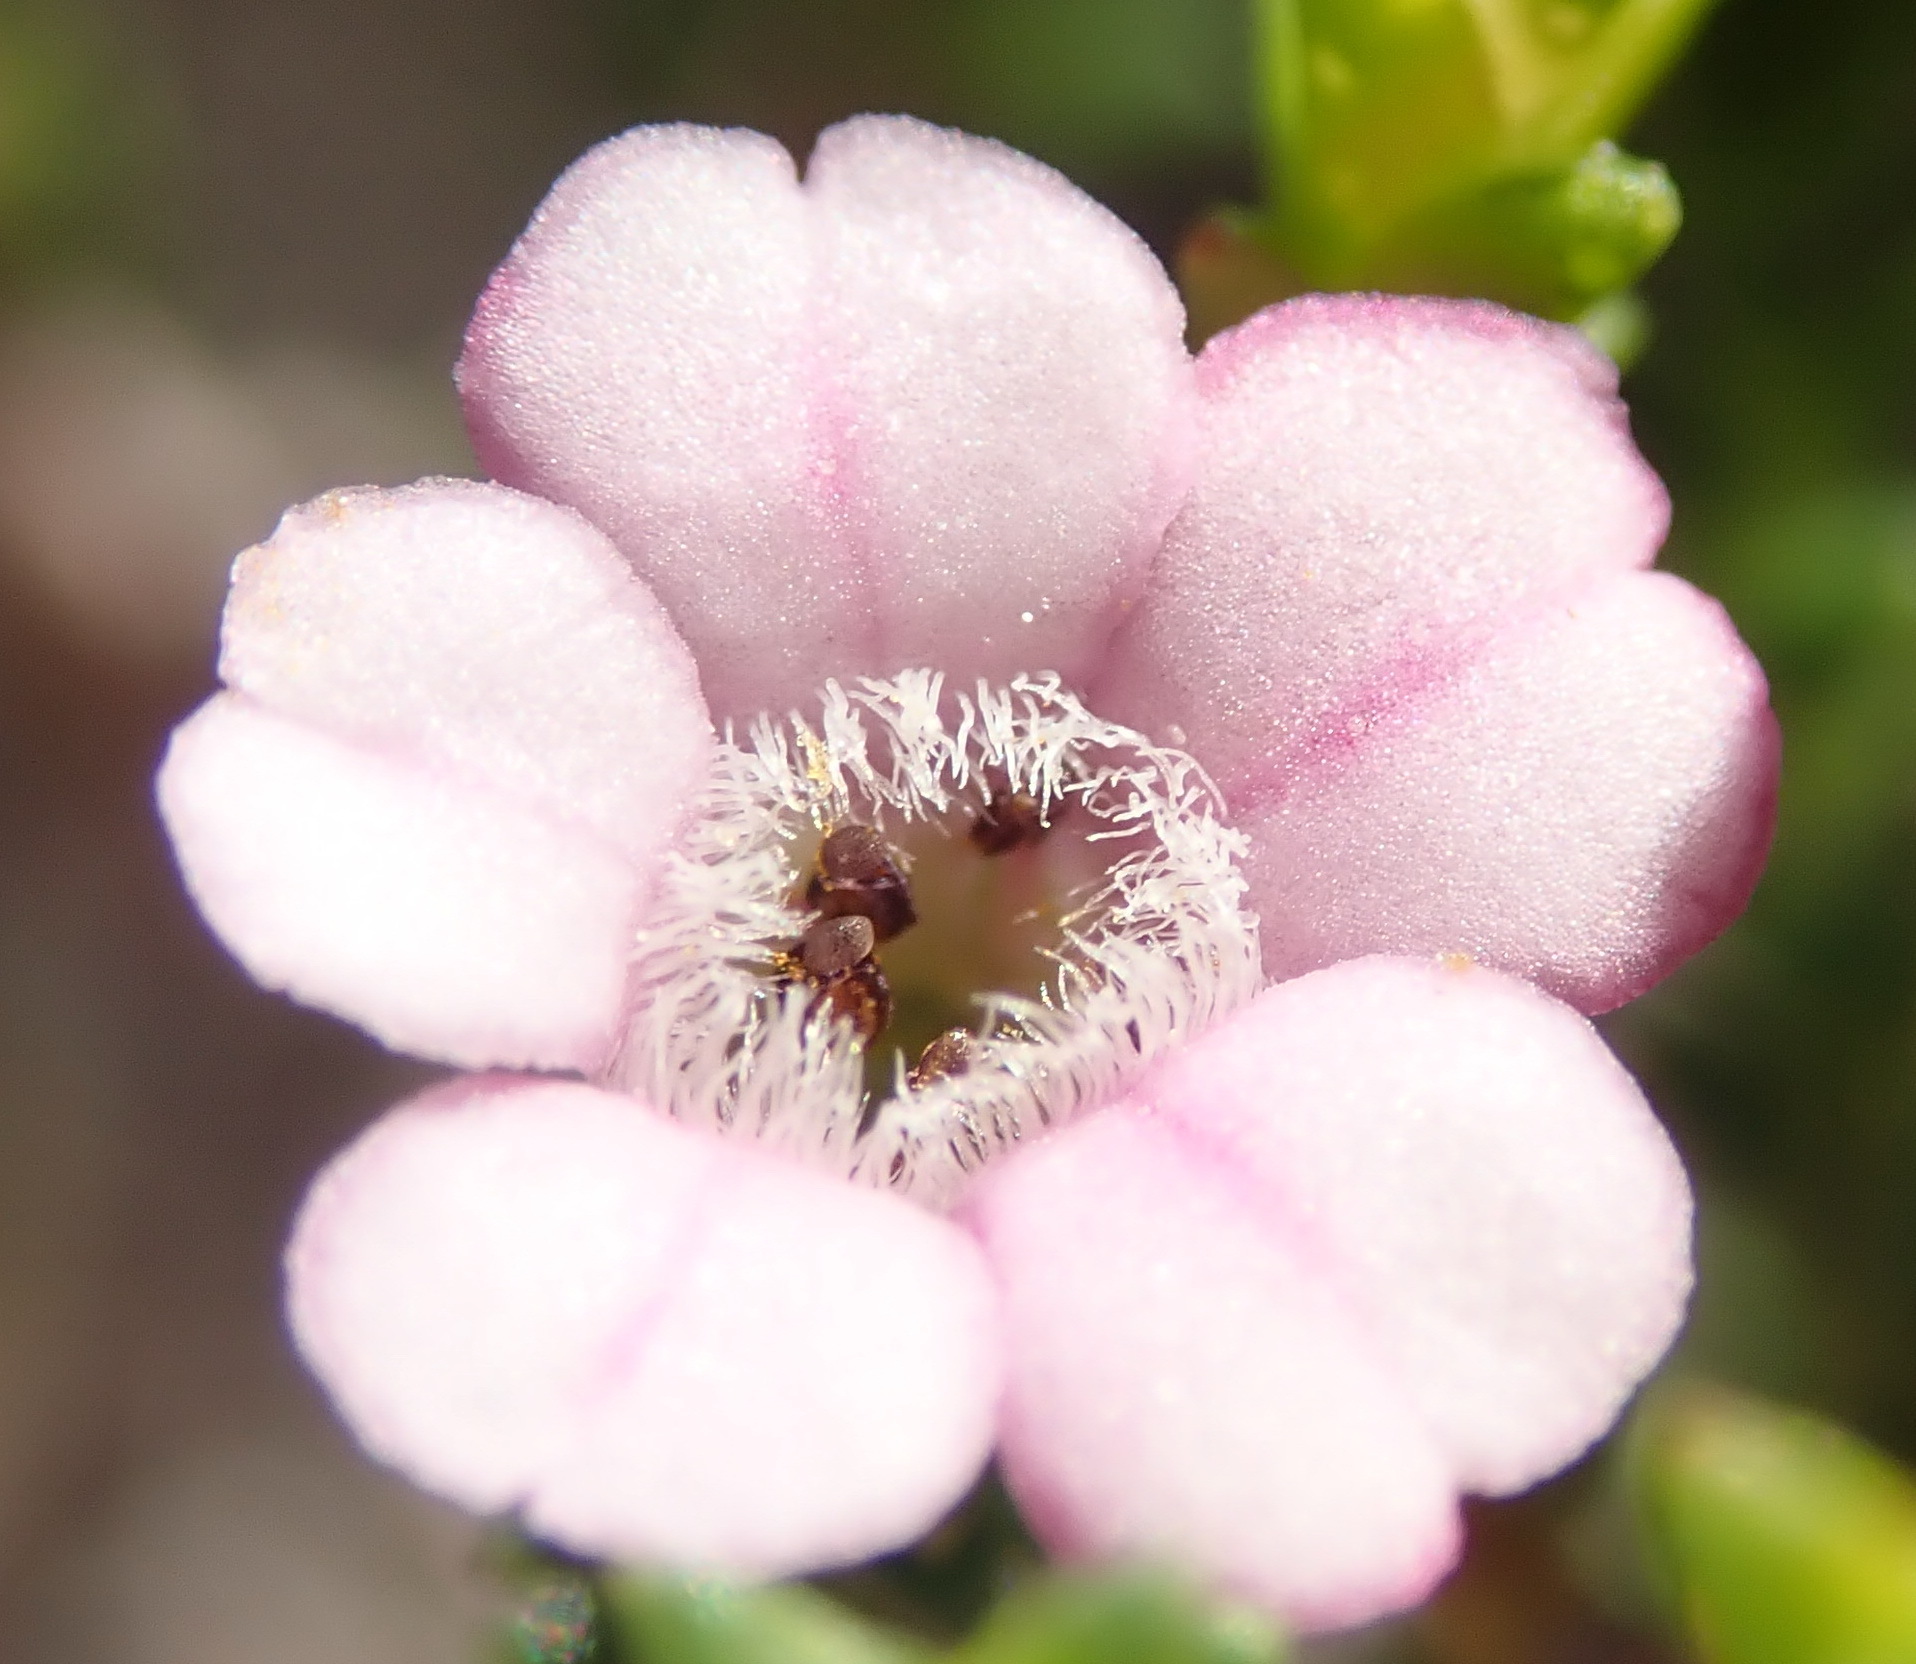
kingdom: Plantae
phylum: Tracheophyta
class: Magnoliopsida
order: Sapindales
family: Rutaceae
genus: Euchaetis
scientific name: Euchaetis albertiniana
